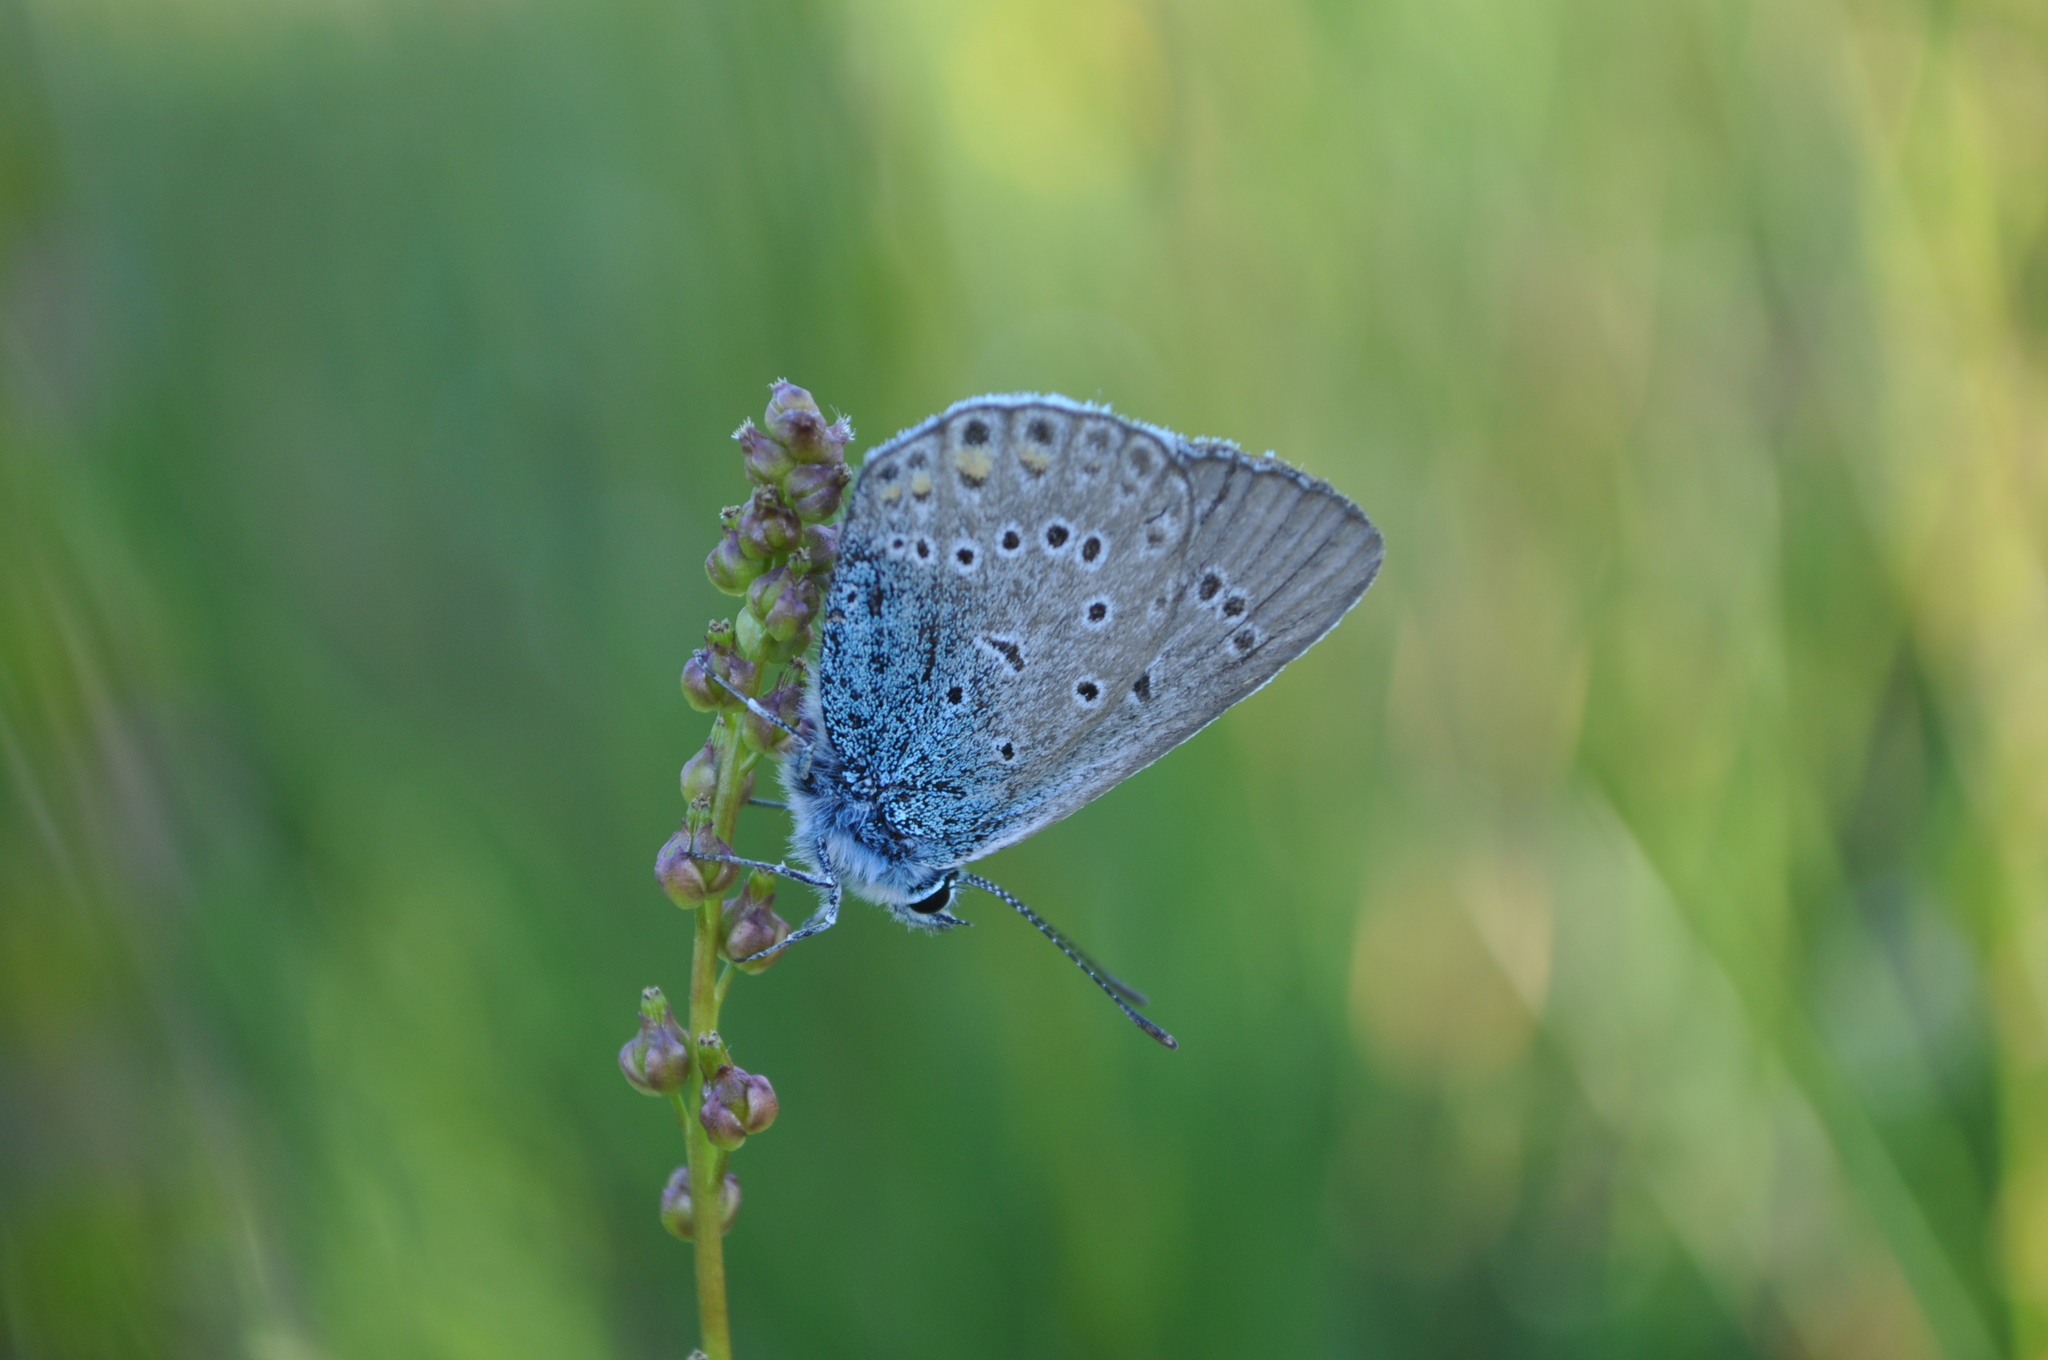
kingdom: Animalia
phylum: Arthropoda
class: Insecta
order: Lepidoptera
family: Lycaenidae
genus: Plebejus
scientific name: Plebejus amanda
